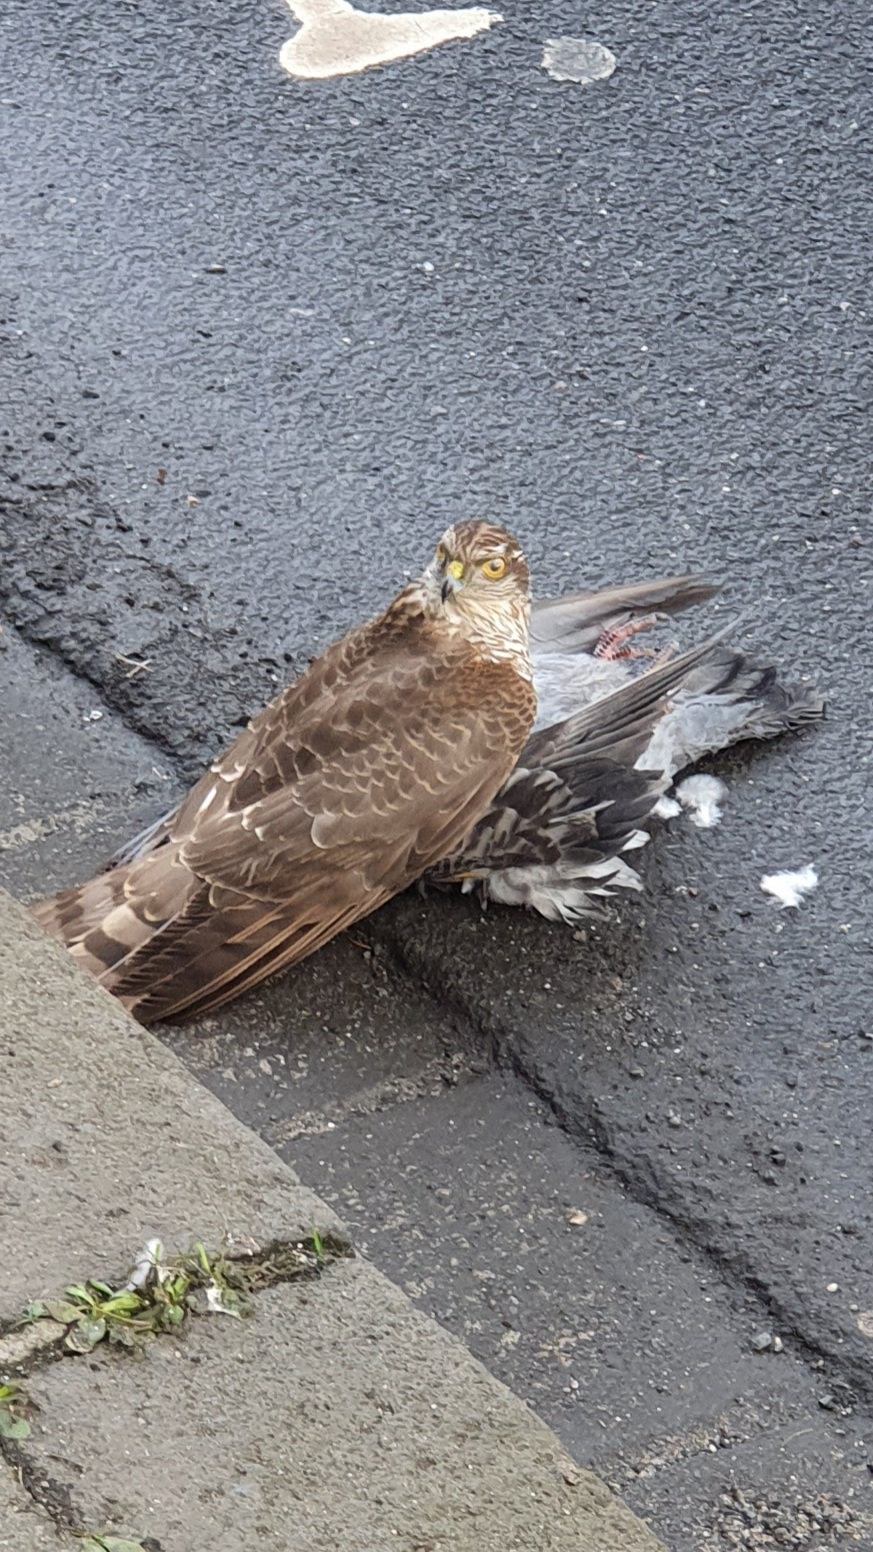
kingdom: Animalia
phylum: Chordata
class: Aves
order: Accipitriformes
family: Accipitridae
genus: Accipiter
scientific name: Accipiter nisus
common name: Eurasian sparrowhawk
